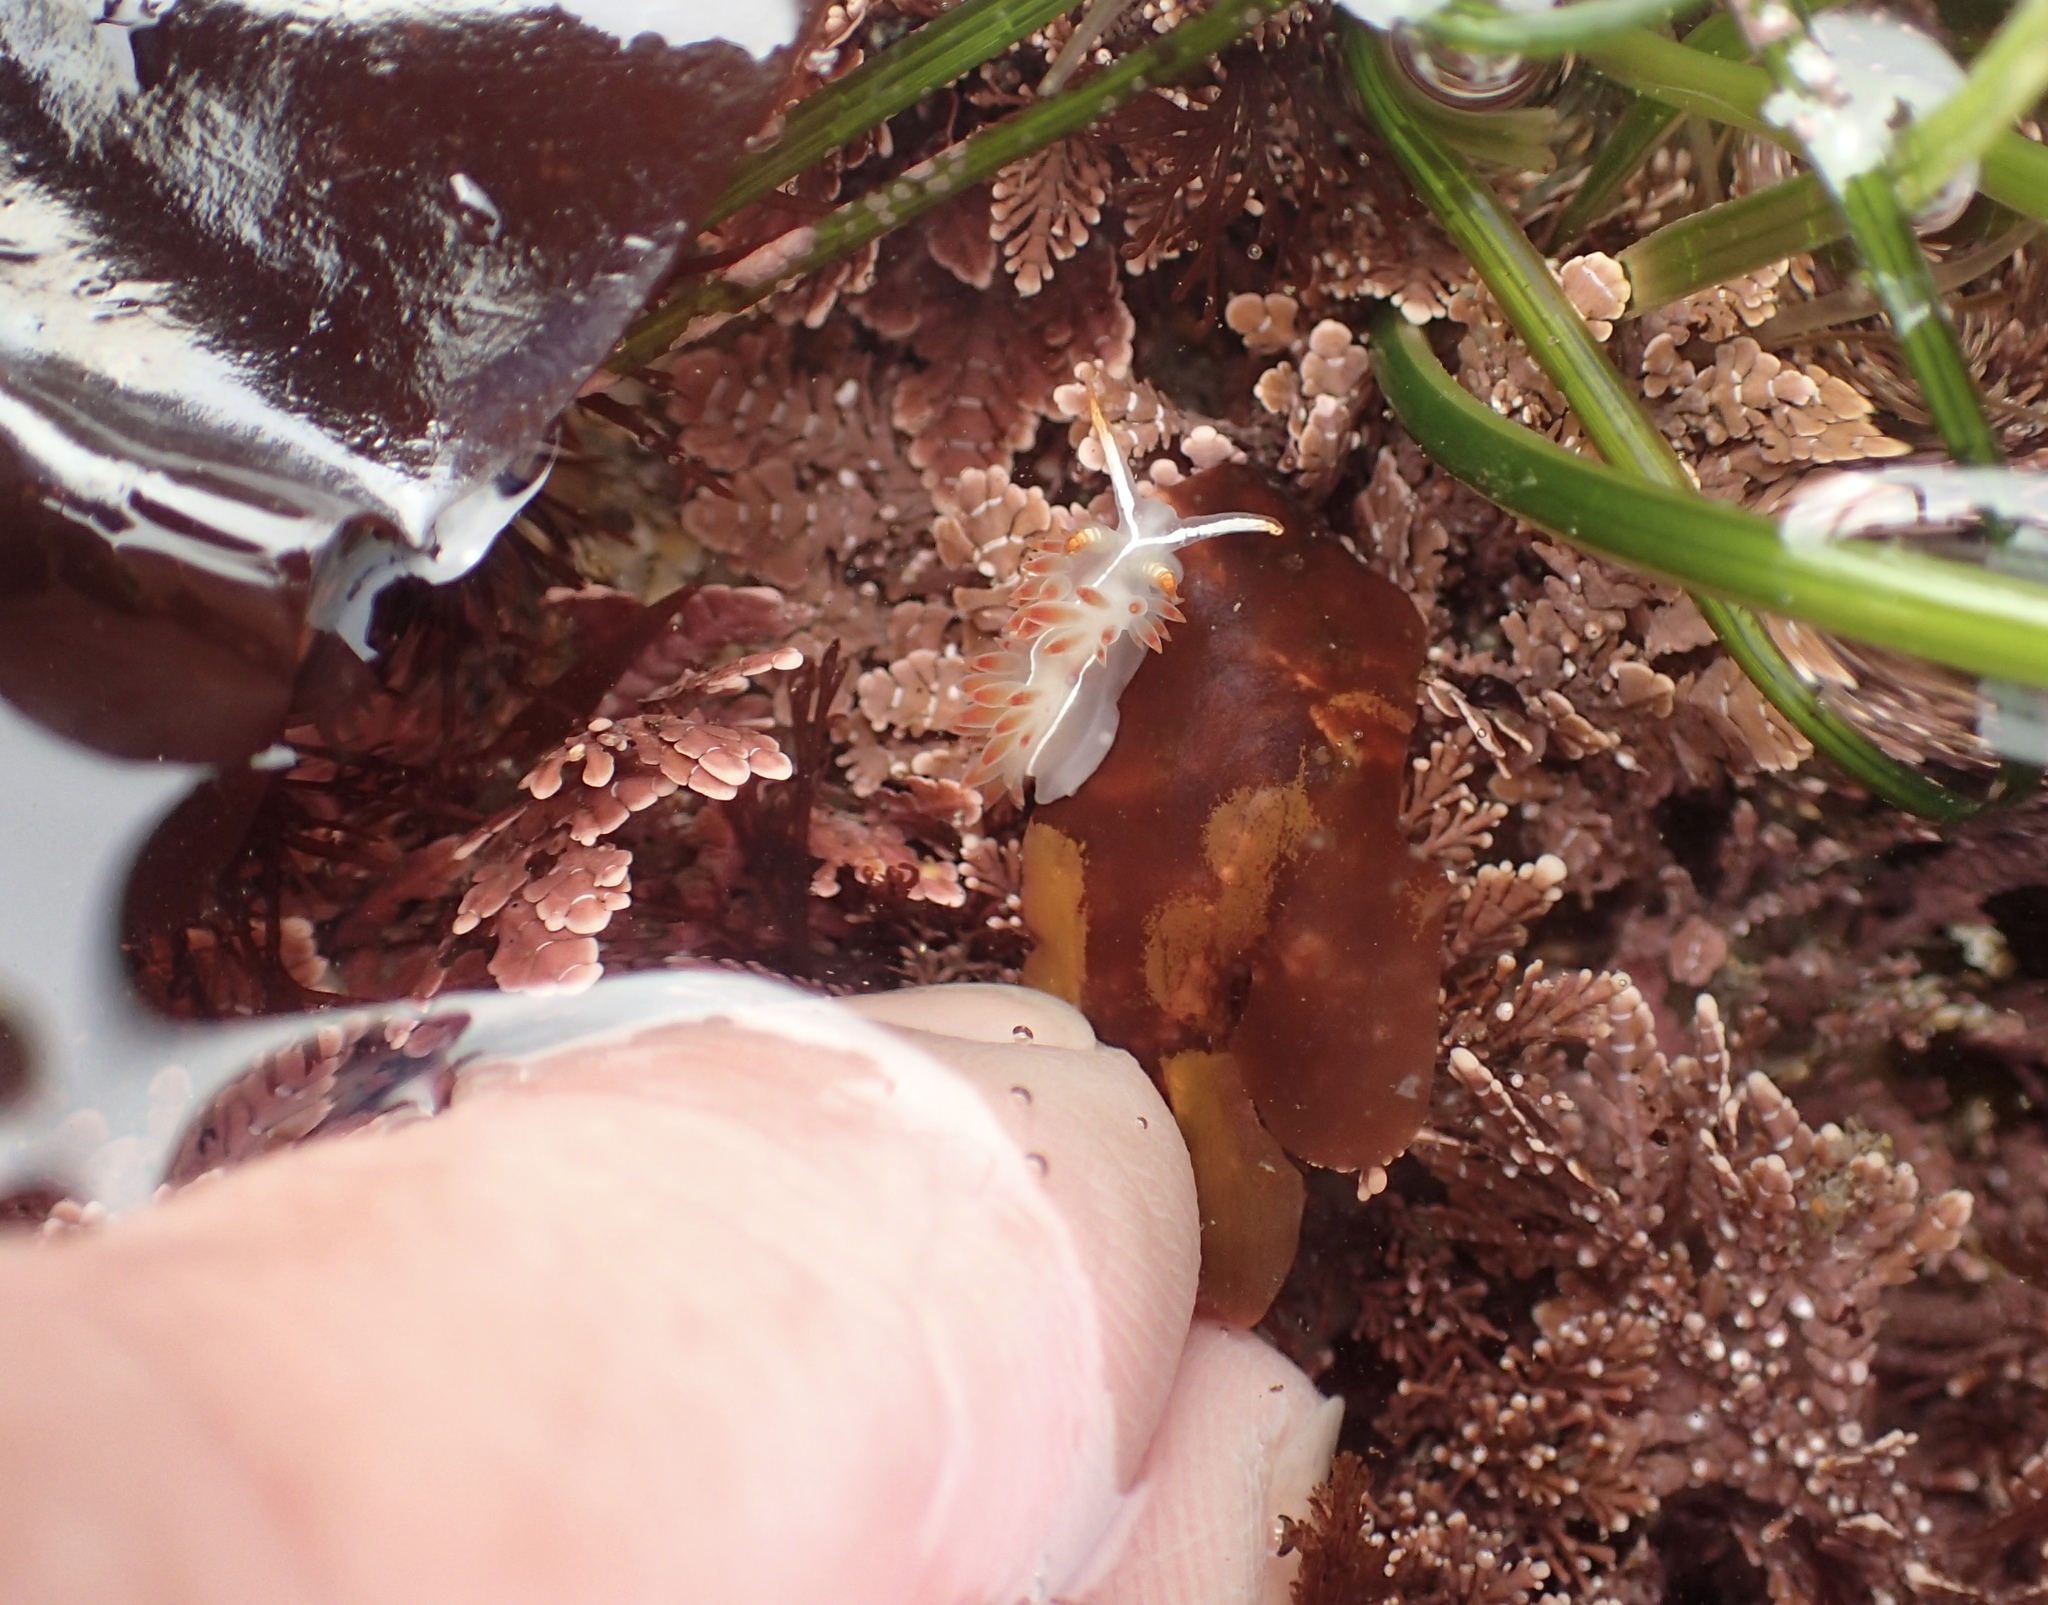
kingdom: Animalia
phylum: Mollusca
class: Gastropoda
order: Nudibranchia
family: Coryphellidae
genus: Coryphella
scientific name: Coryphella trilineata
